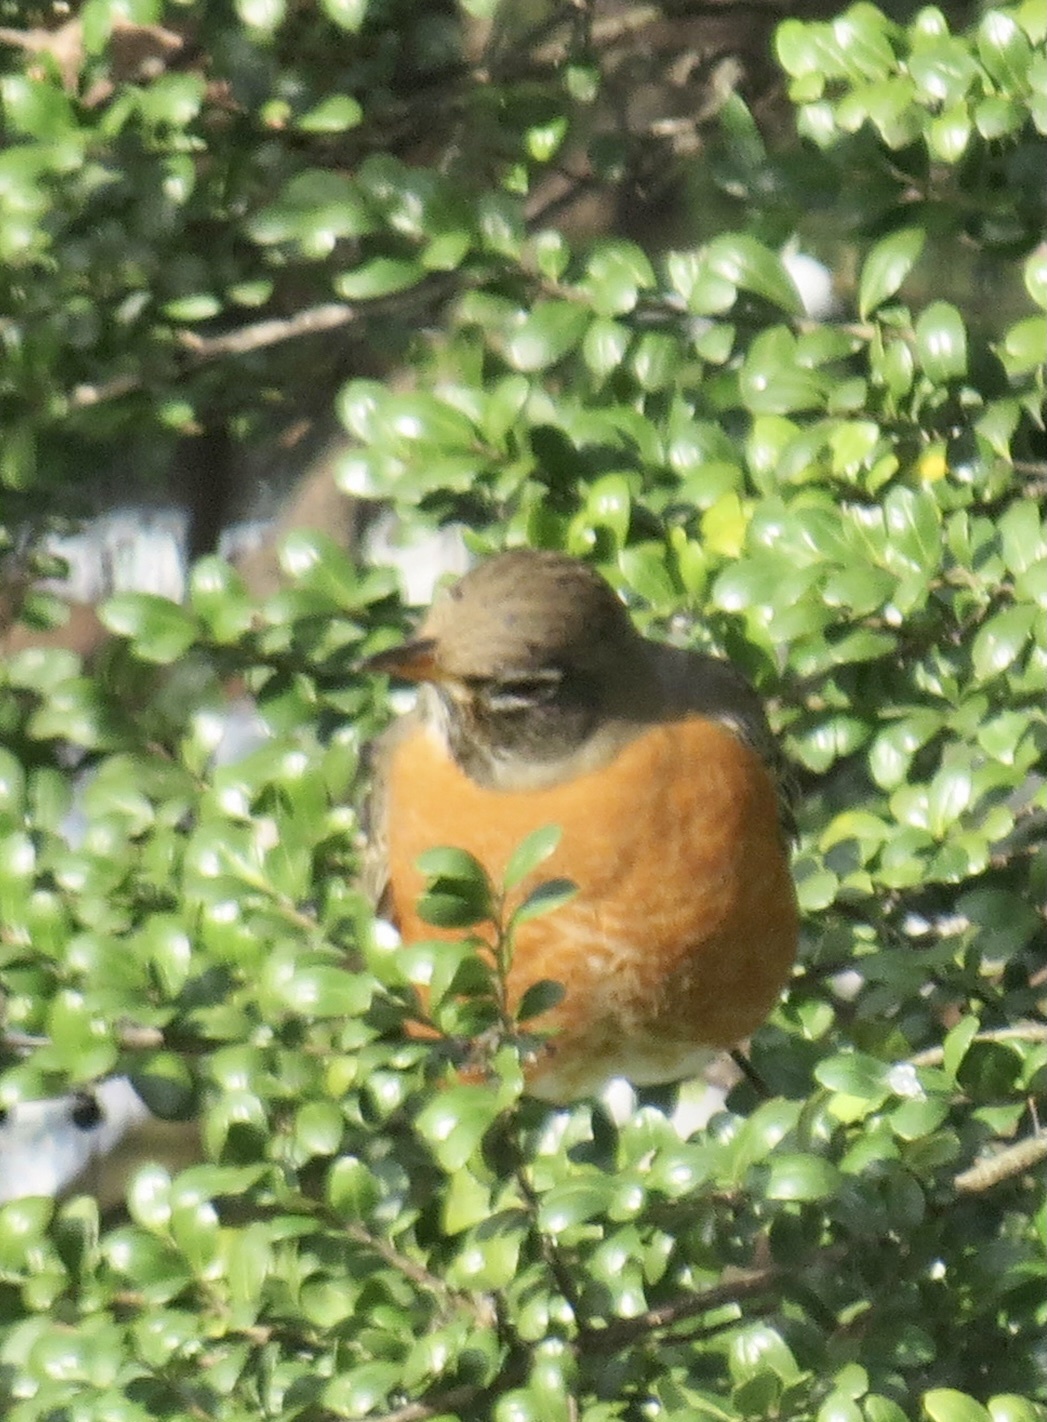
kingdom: Animalia
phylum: Chordata
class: Aves
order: Passeriformes
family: Turdidae
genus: Turdus
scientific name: Turdus migratorius
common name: American robin
